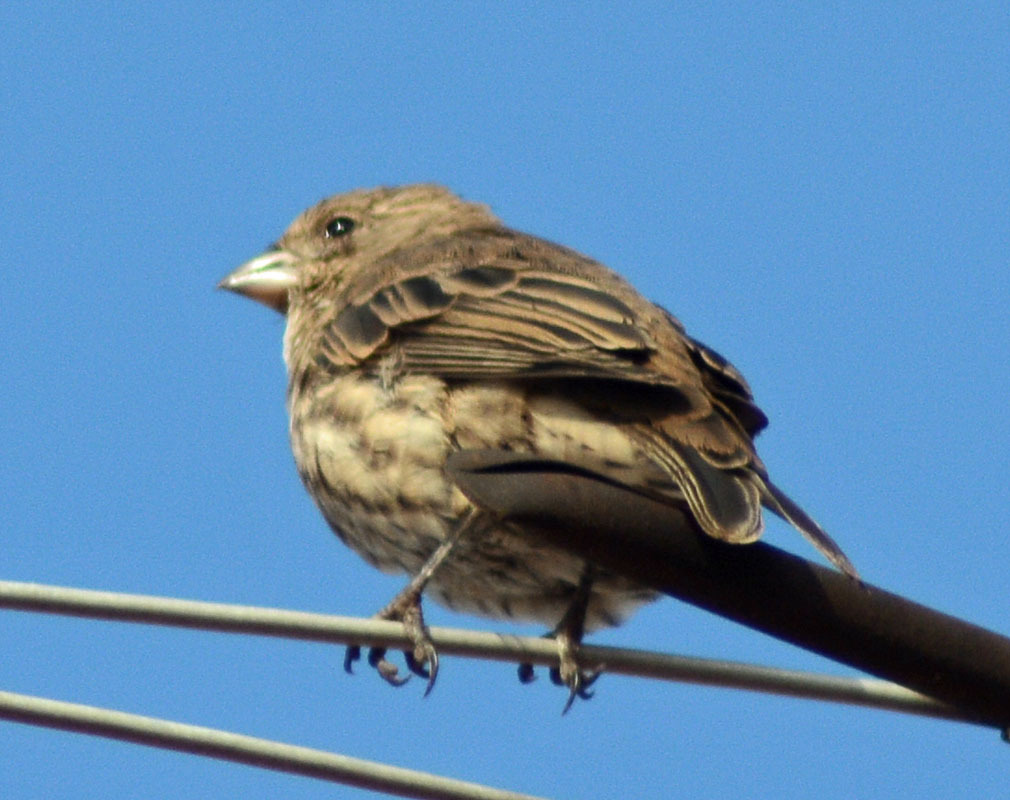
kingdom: Animalia
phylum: Chordata
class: Aves
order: Passeriformes
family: Fringillidae
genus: Haemorhous
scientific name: Haemorhous mexicanus
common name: House finch
